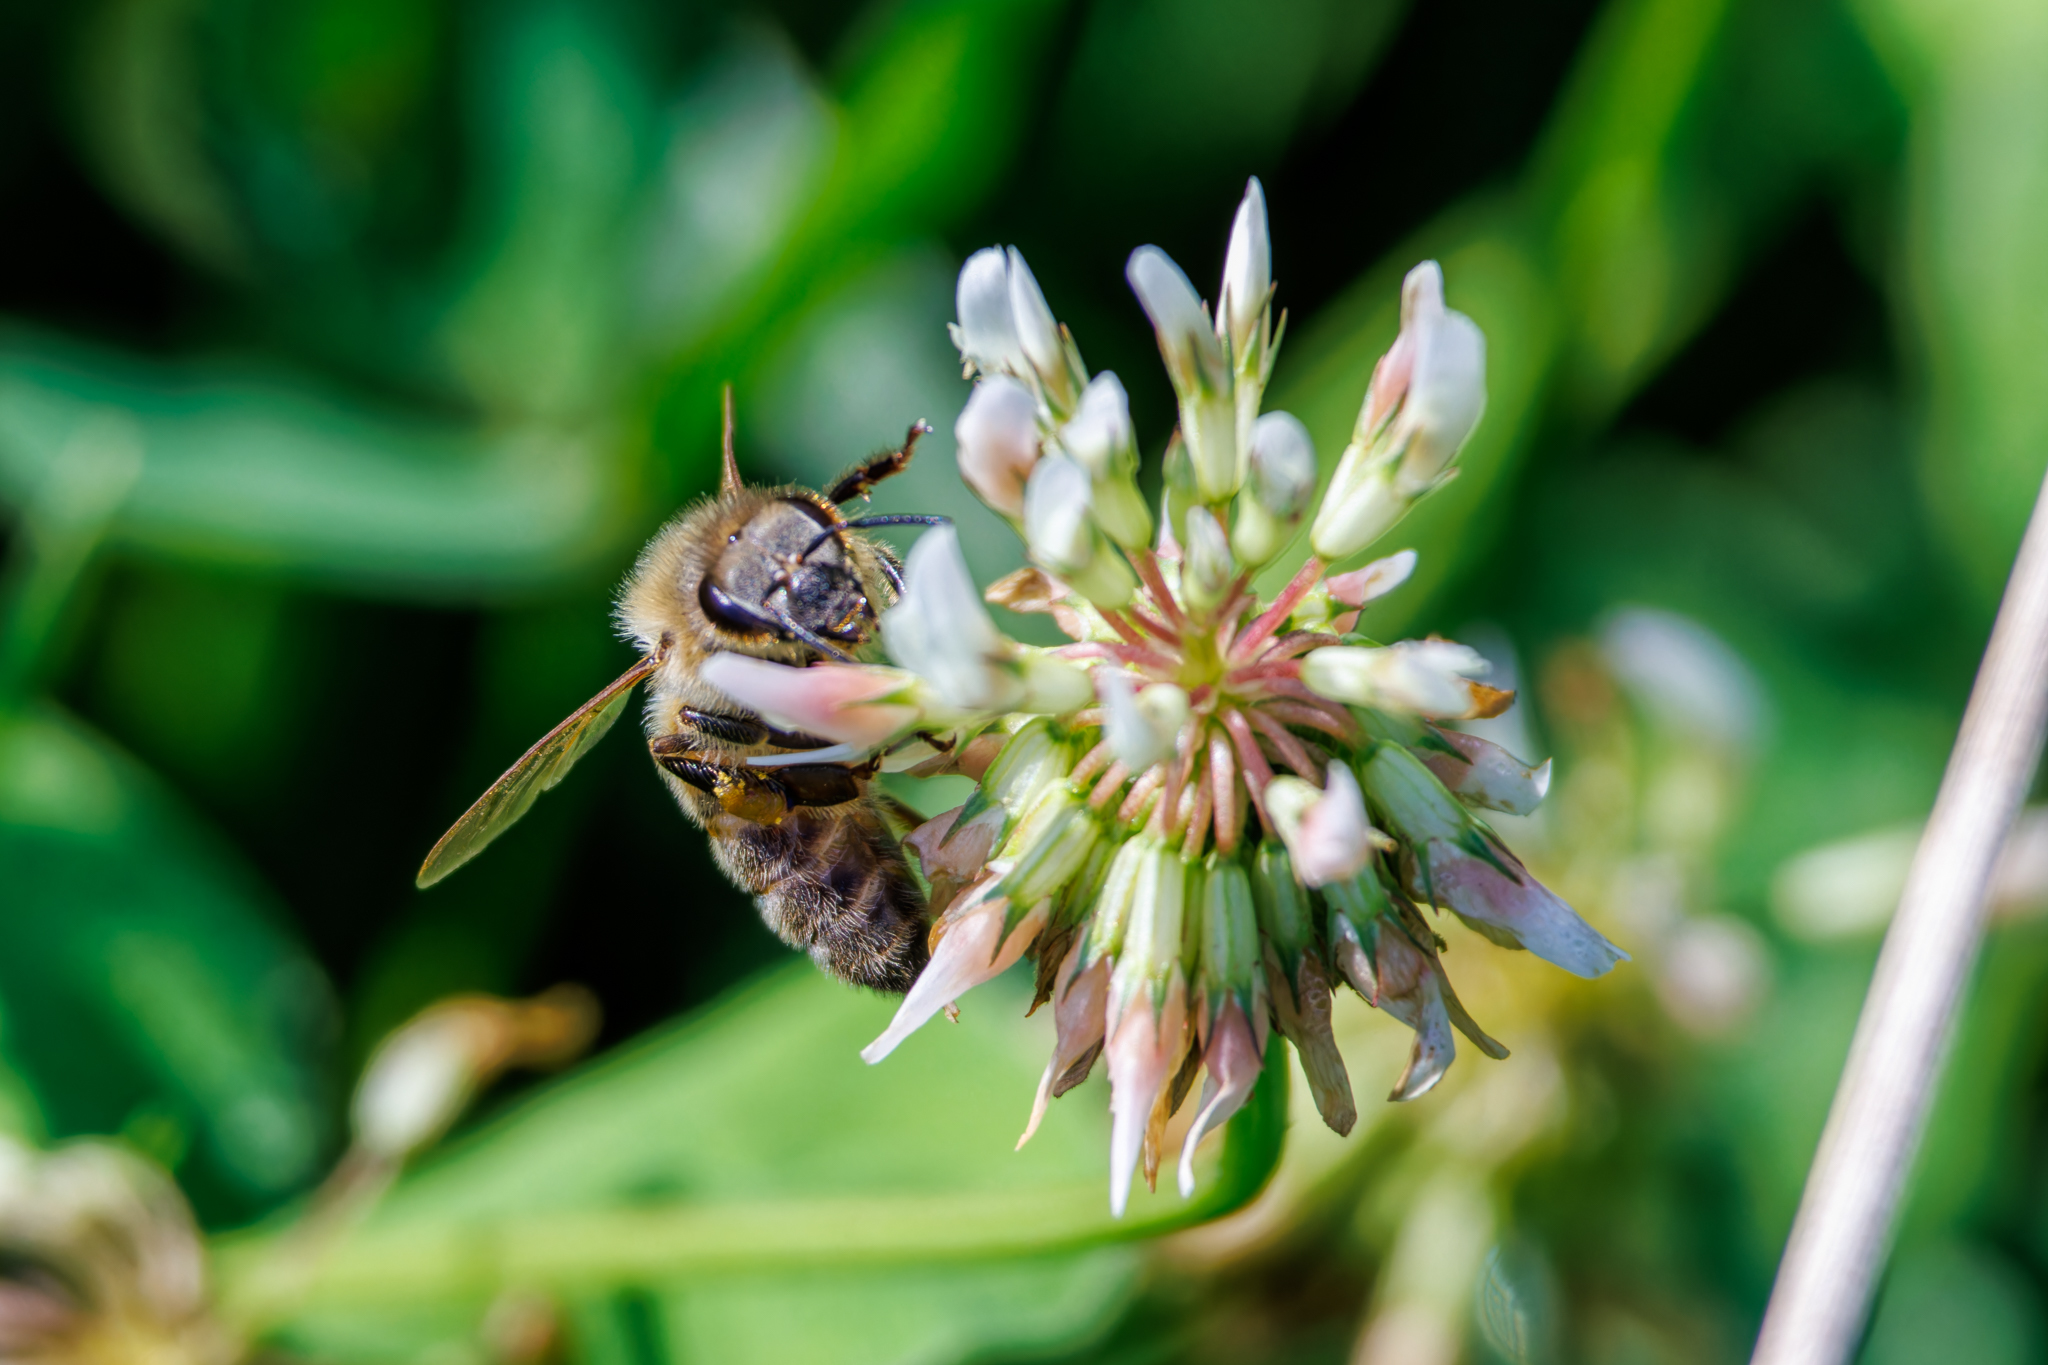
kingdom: Animalia
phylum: Arthropoda
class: Insecta
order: Hymenoptera
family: Apidae
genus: Apis
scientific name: Apis mellifera
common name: Honey bee
